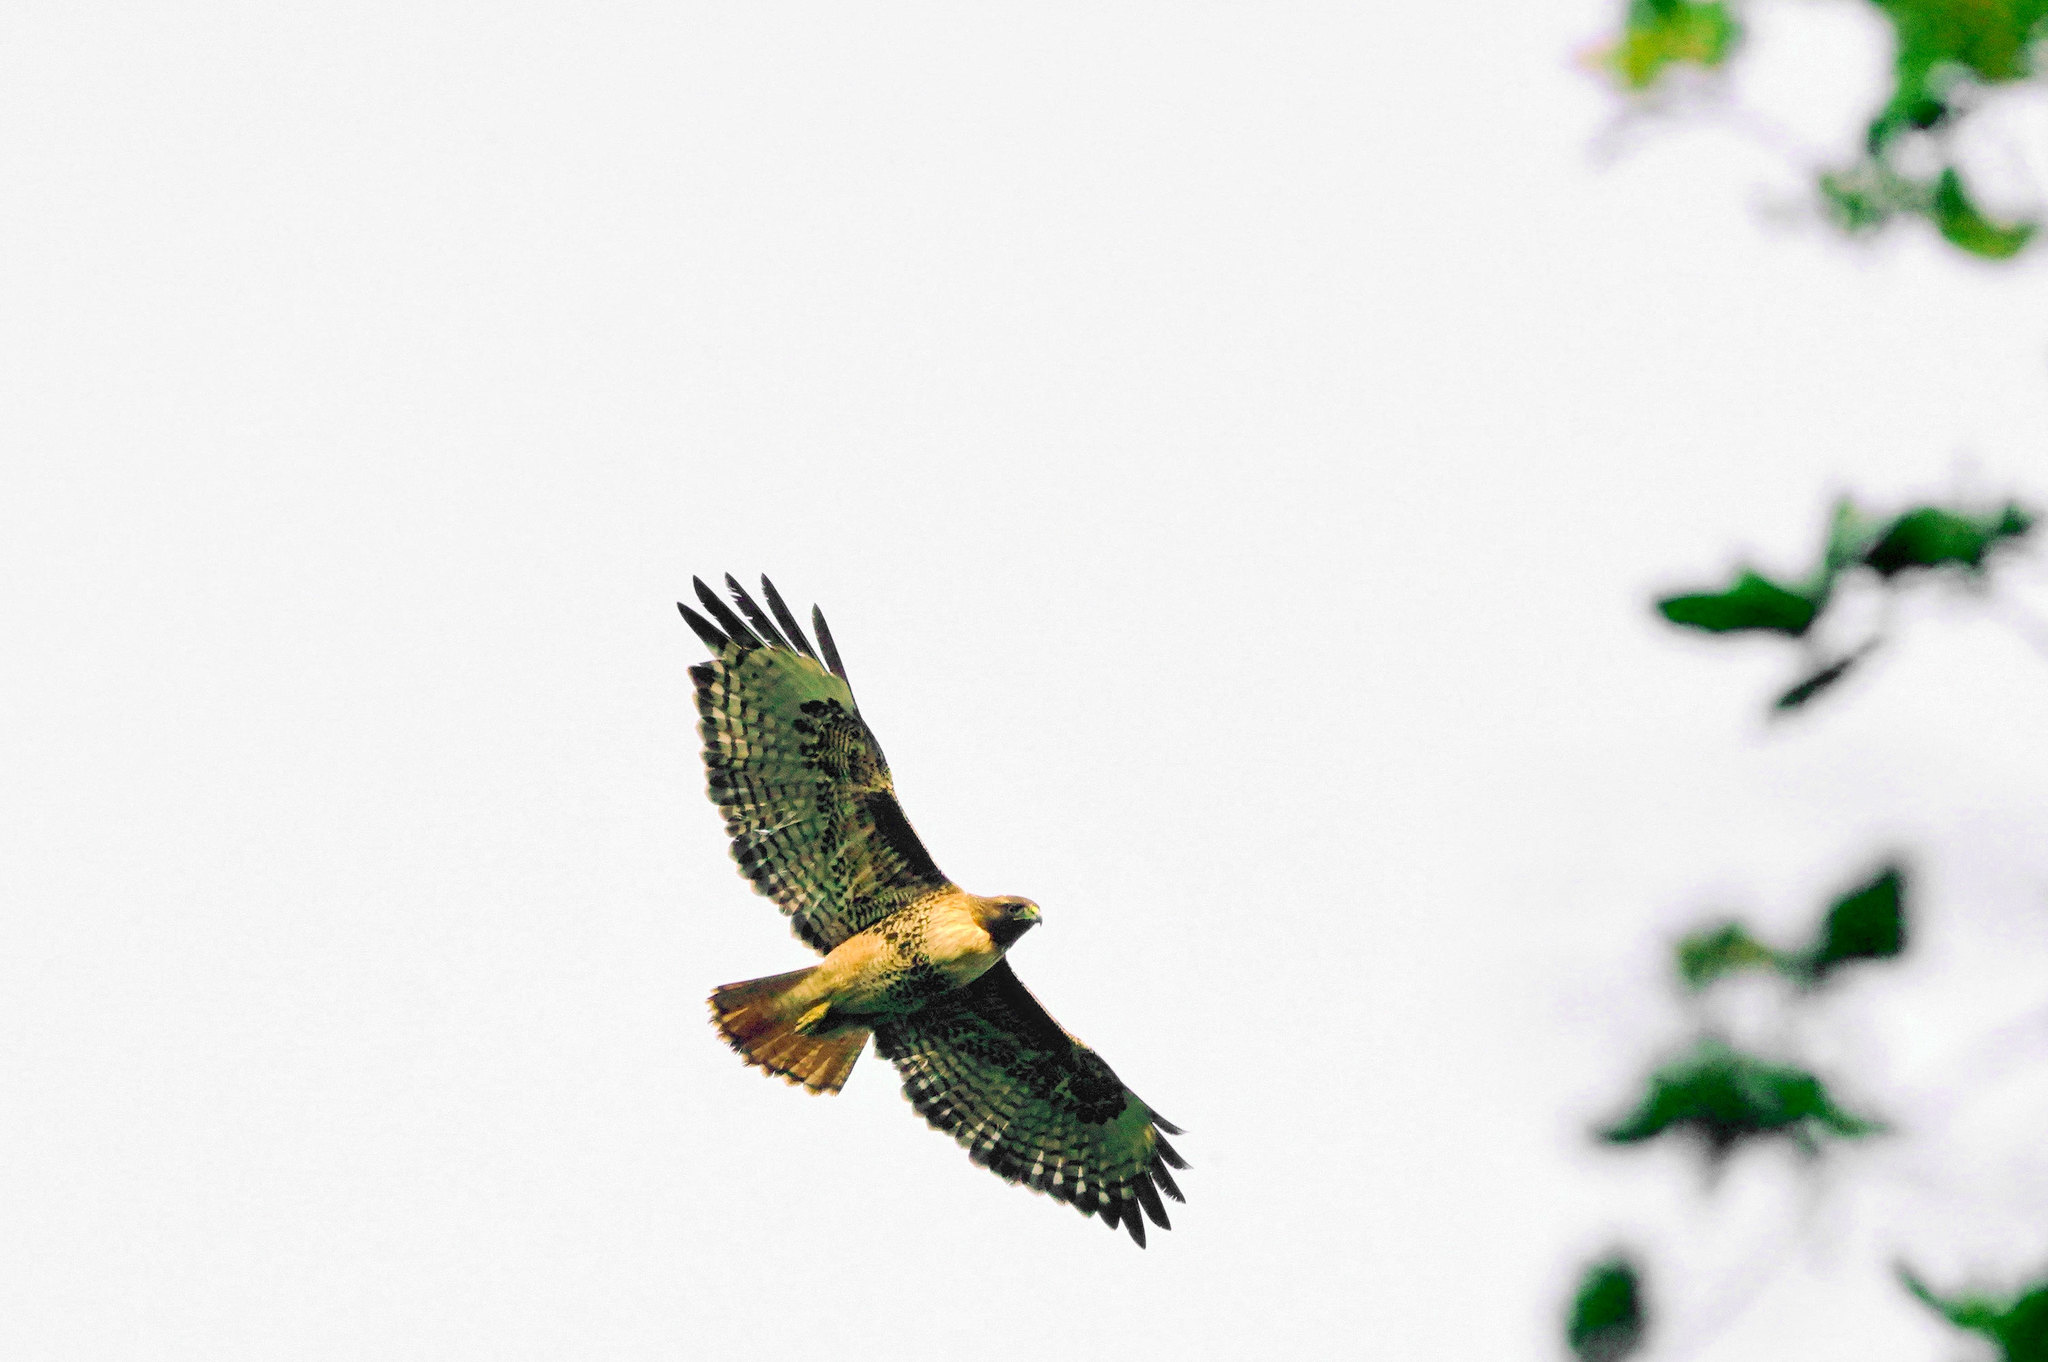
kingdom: Animalia
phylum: Chordata
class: Aves
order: Accipitriformes
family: Accipitridae
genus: Buteo
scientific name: Buteo jamaicensis
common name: Red-tailed hawk
